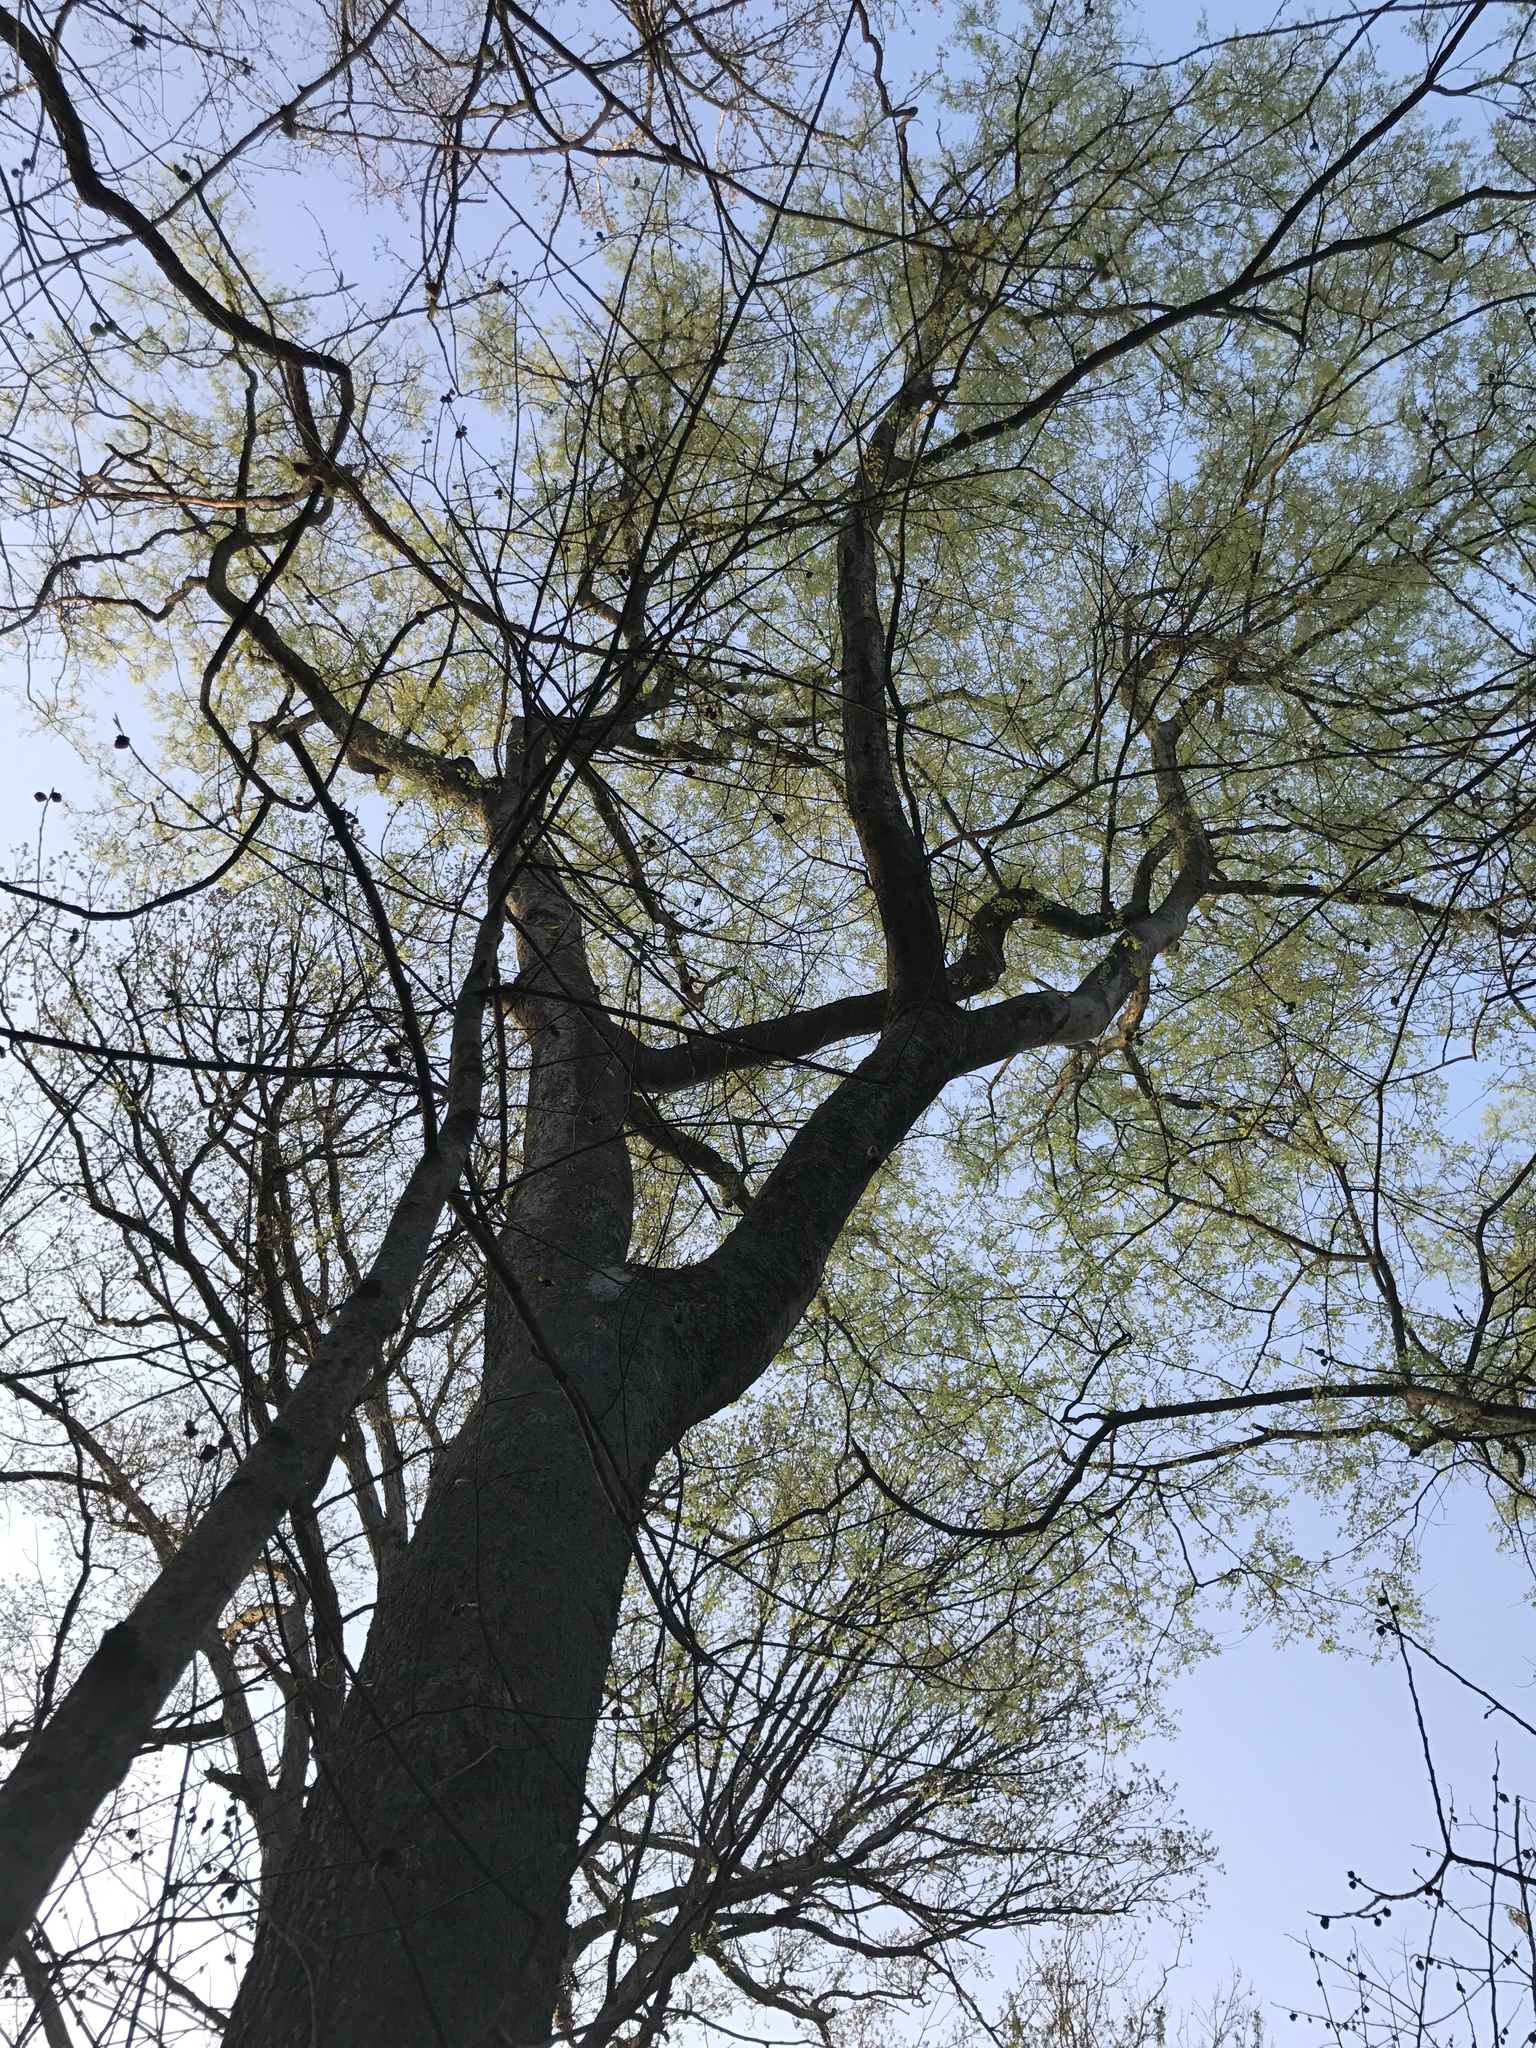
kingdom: Plantae
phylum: Tracheophyta
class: Magnoliopsida
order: Rosales
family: Cannabaceae
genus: Celtis
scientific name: Celtis occidentalis
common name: Common hackberry
